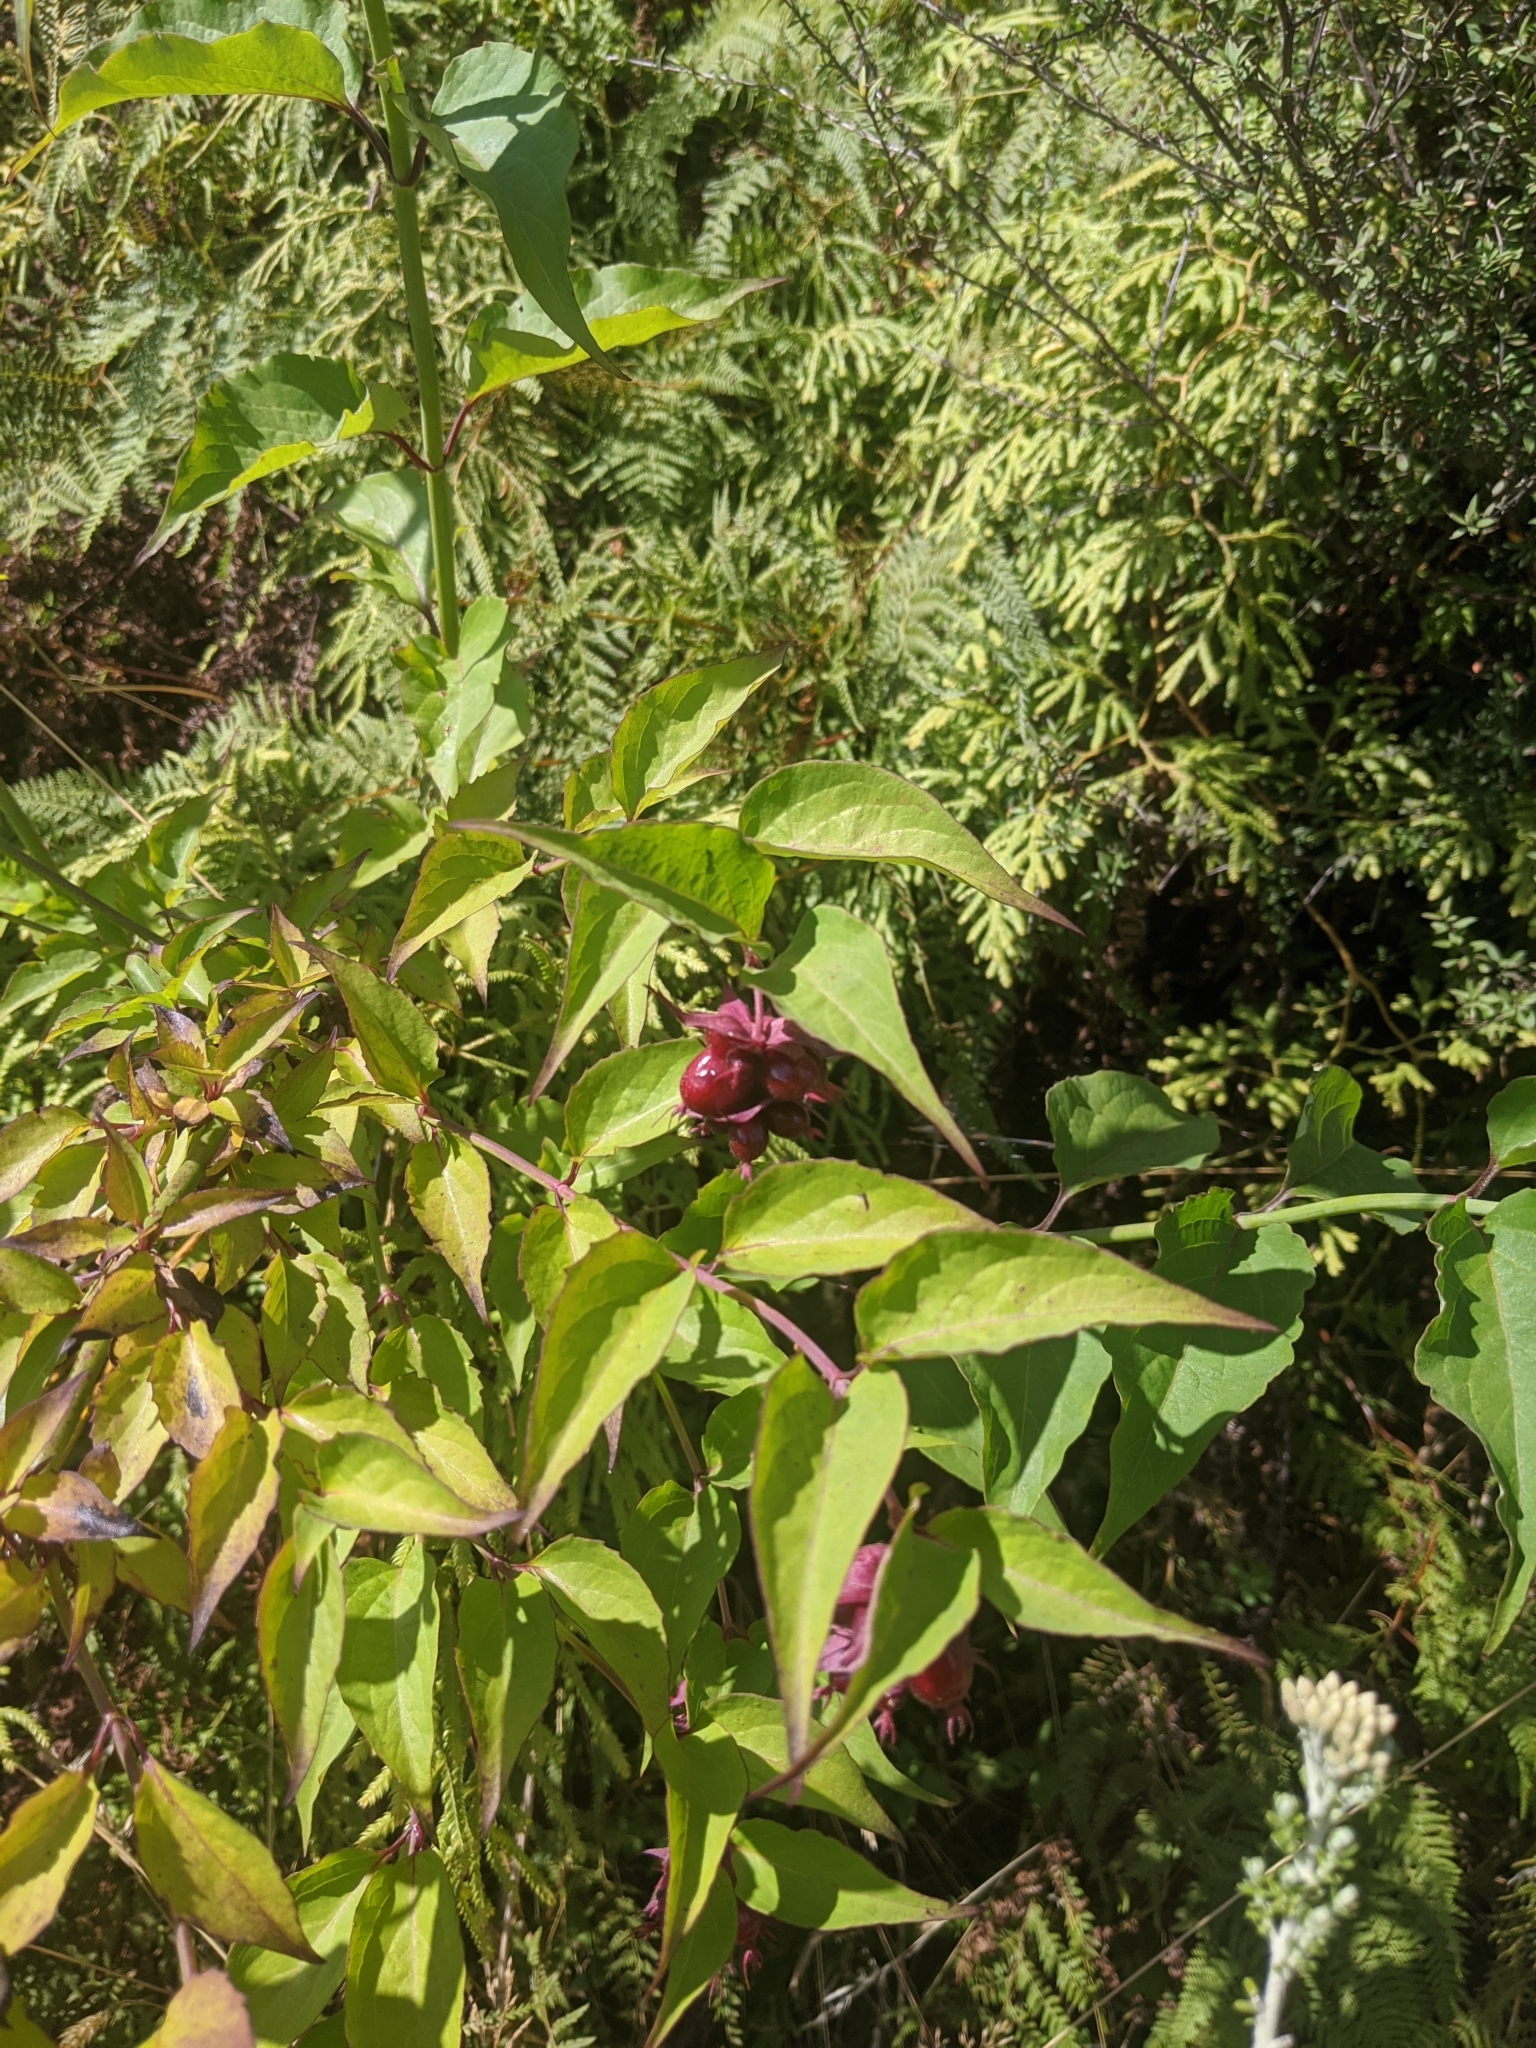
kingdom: Plantae
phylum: Tracheophyta
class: Magnoliopsida
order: Dipsacales
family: Caprifoliaceae
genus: Leycesteria
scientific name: Leycesteria formosa
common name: Himalayan honeysuckle
